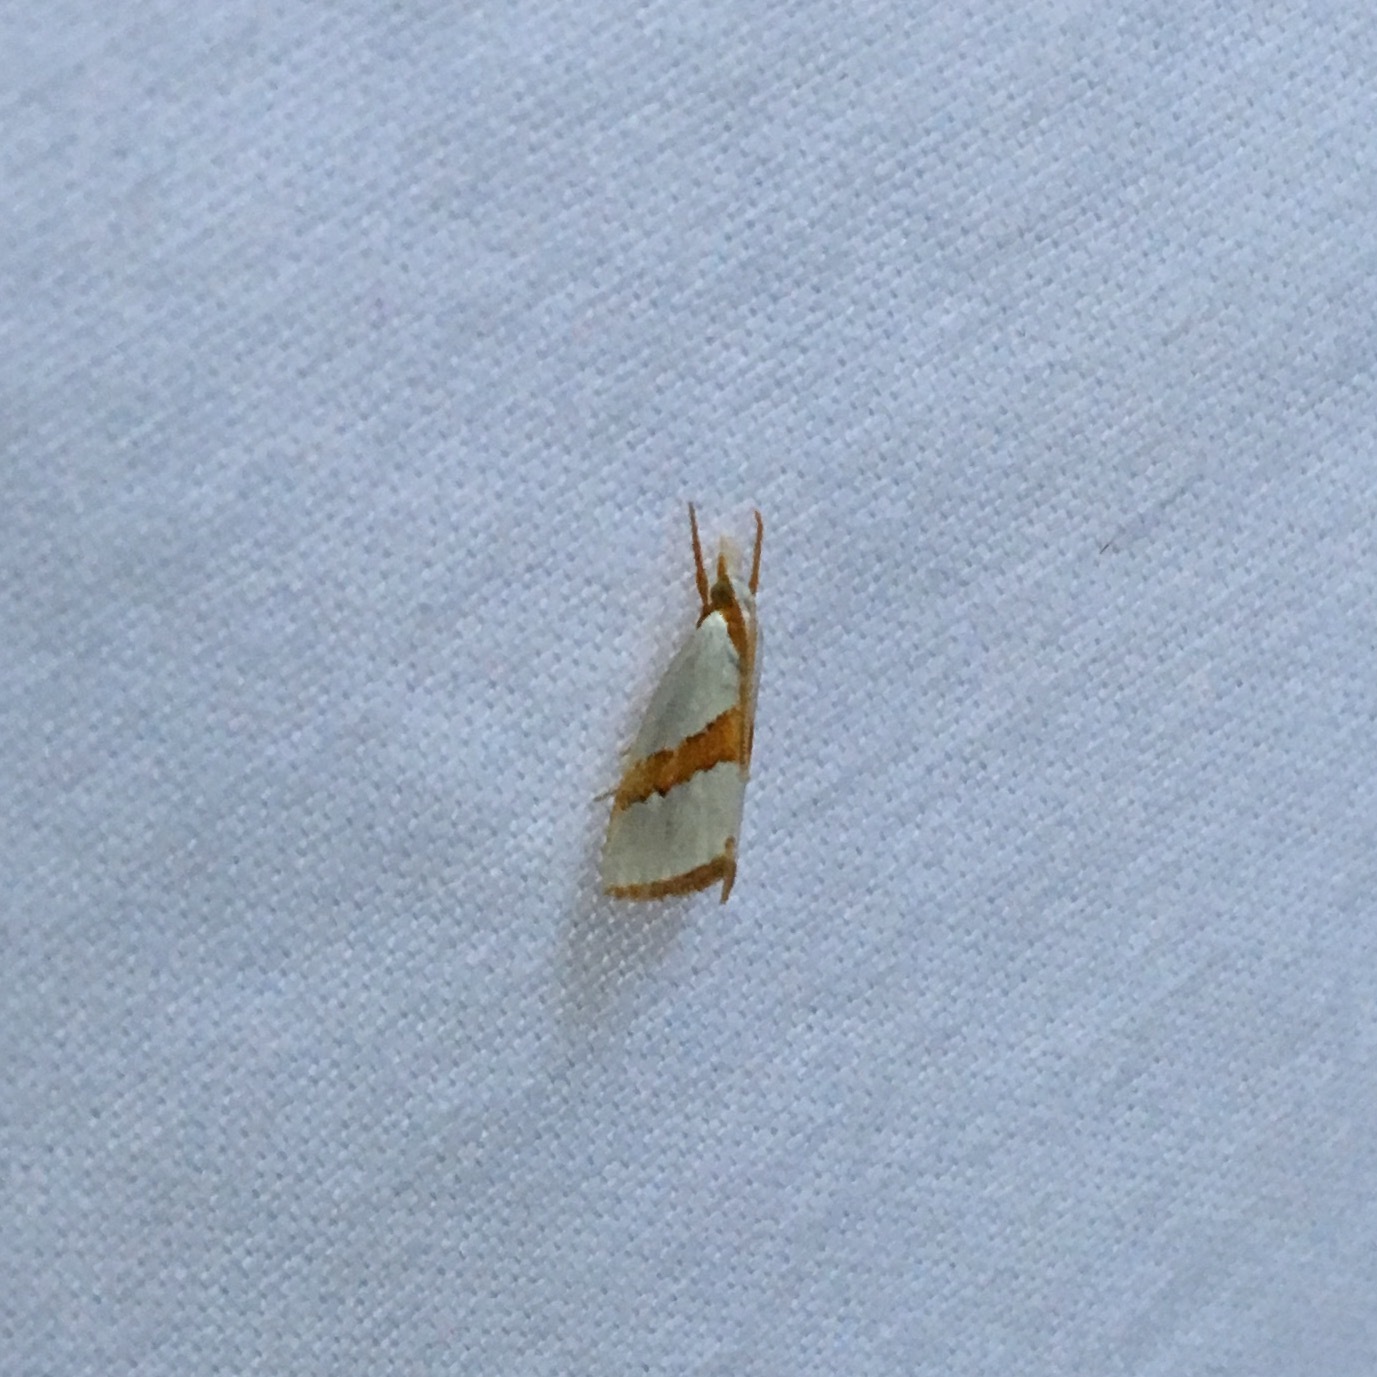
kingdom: Animalia
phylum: Arthropoda
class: Insecta
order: Lepidoptera
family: Crambidae
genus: Vaxi
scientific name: Vaxi critica
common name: Straight-lined vaxi moth
